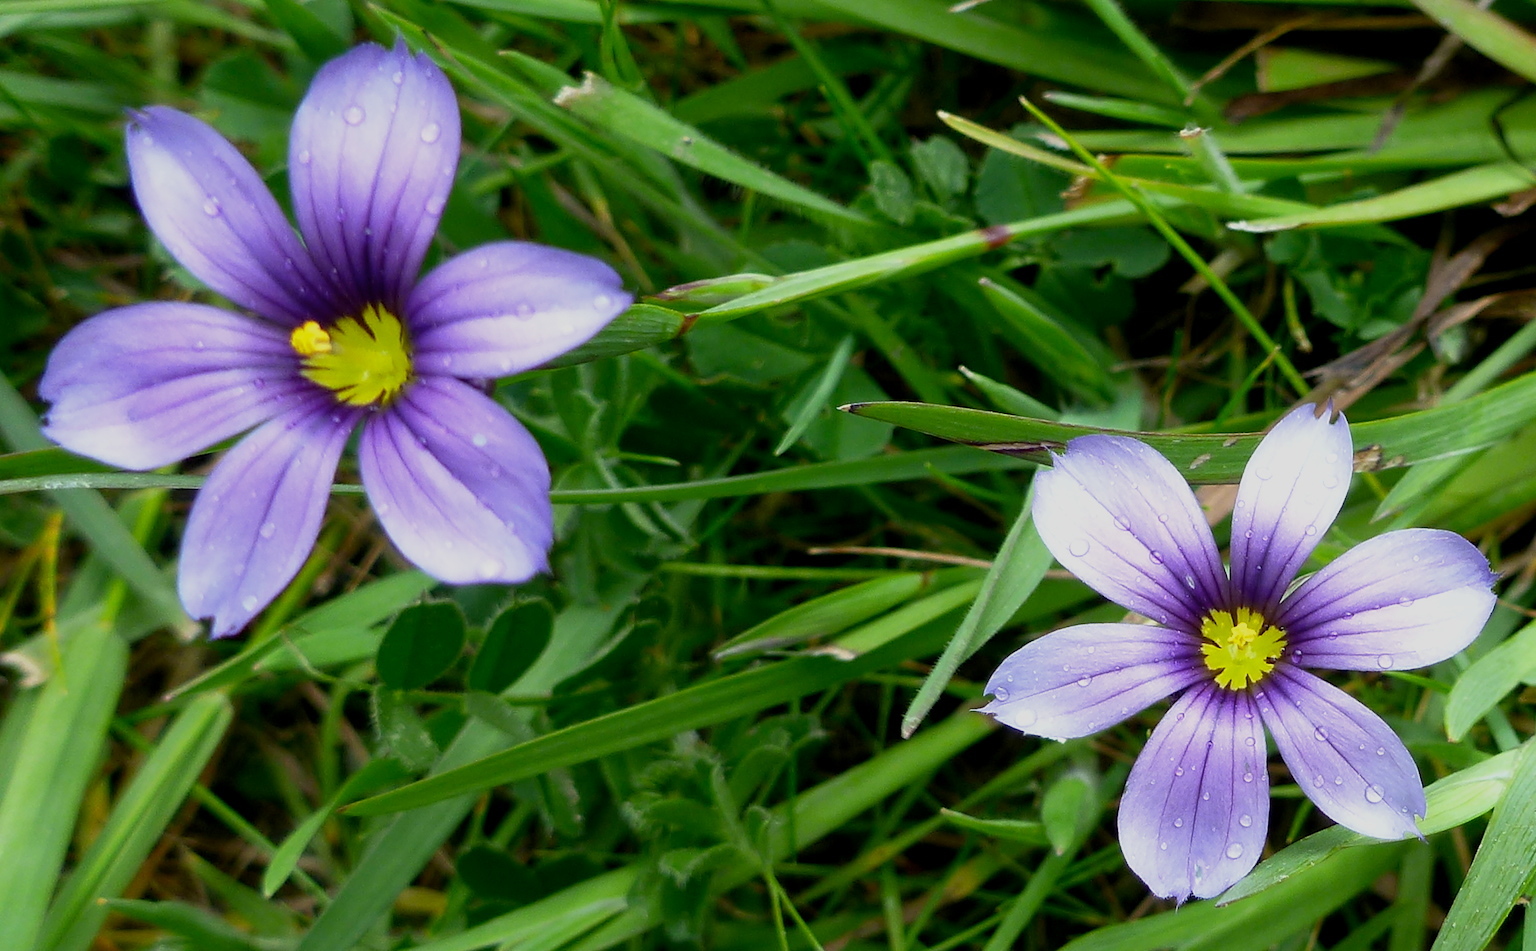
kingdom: Plantae
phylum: Tracheophyta
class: Liliopsida
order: Asparagales
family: Iridaceae
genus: Sisyrinchium
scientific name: Sisyrinchium bellum
